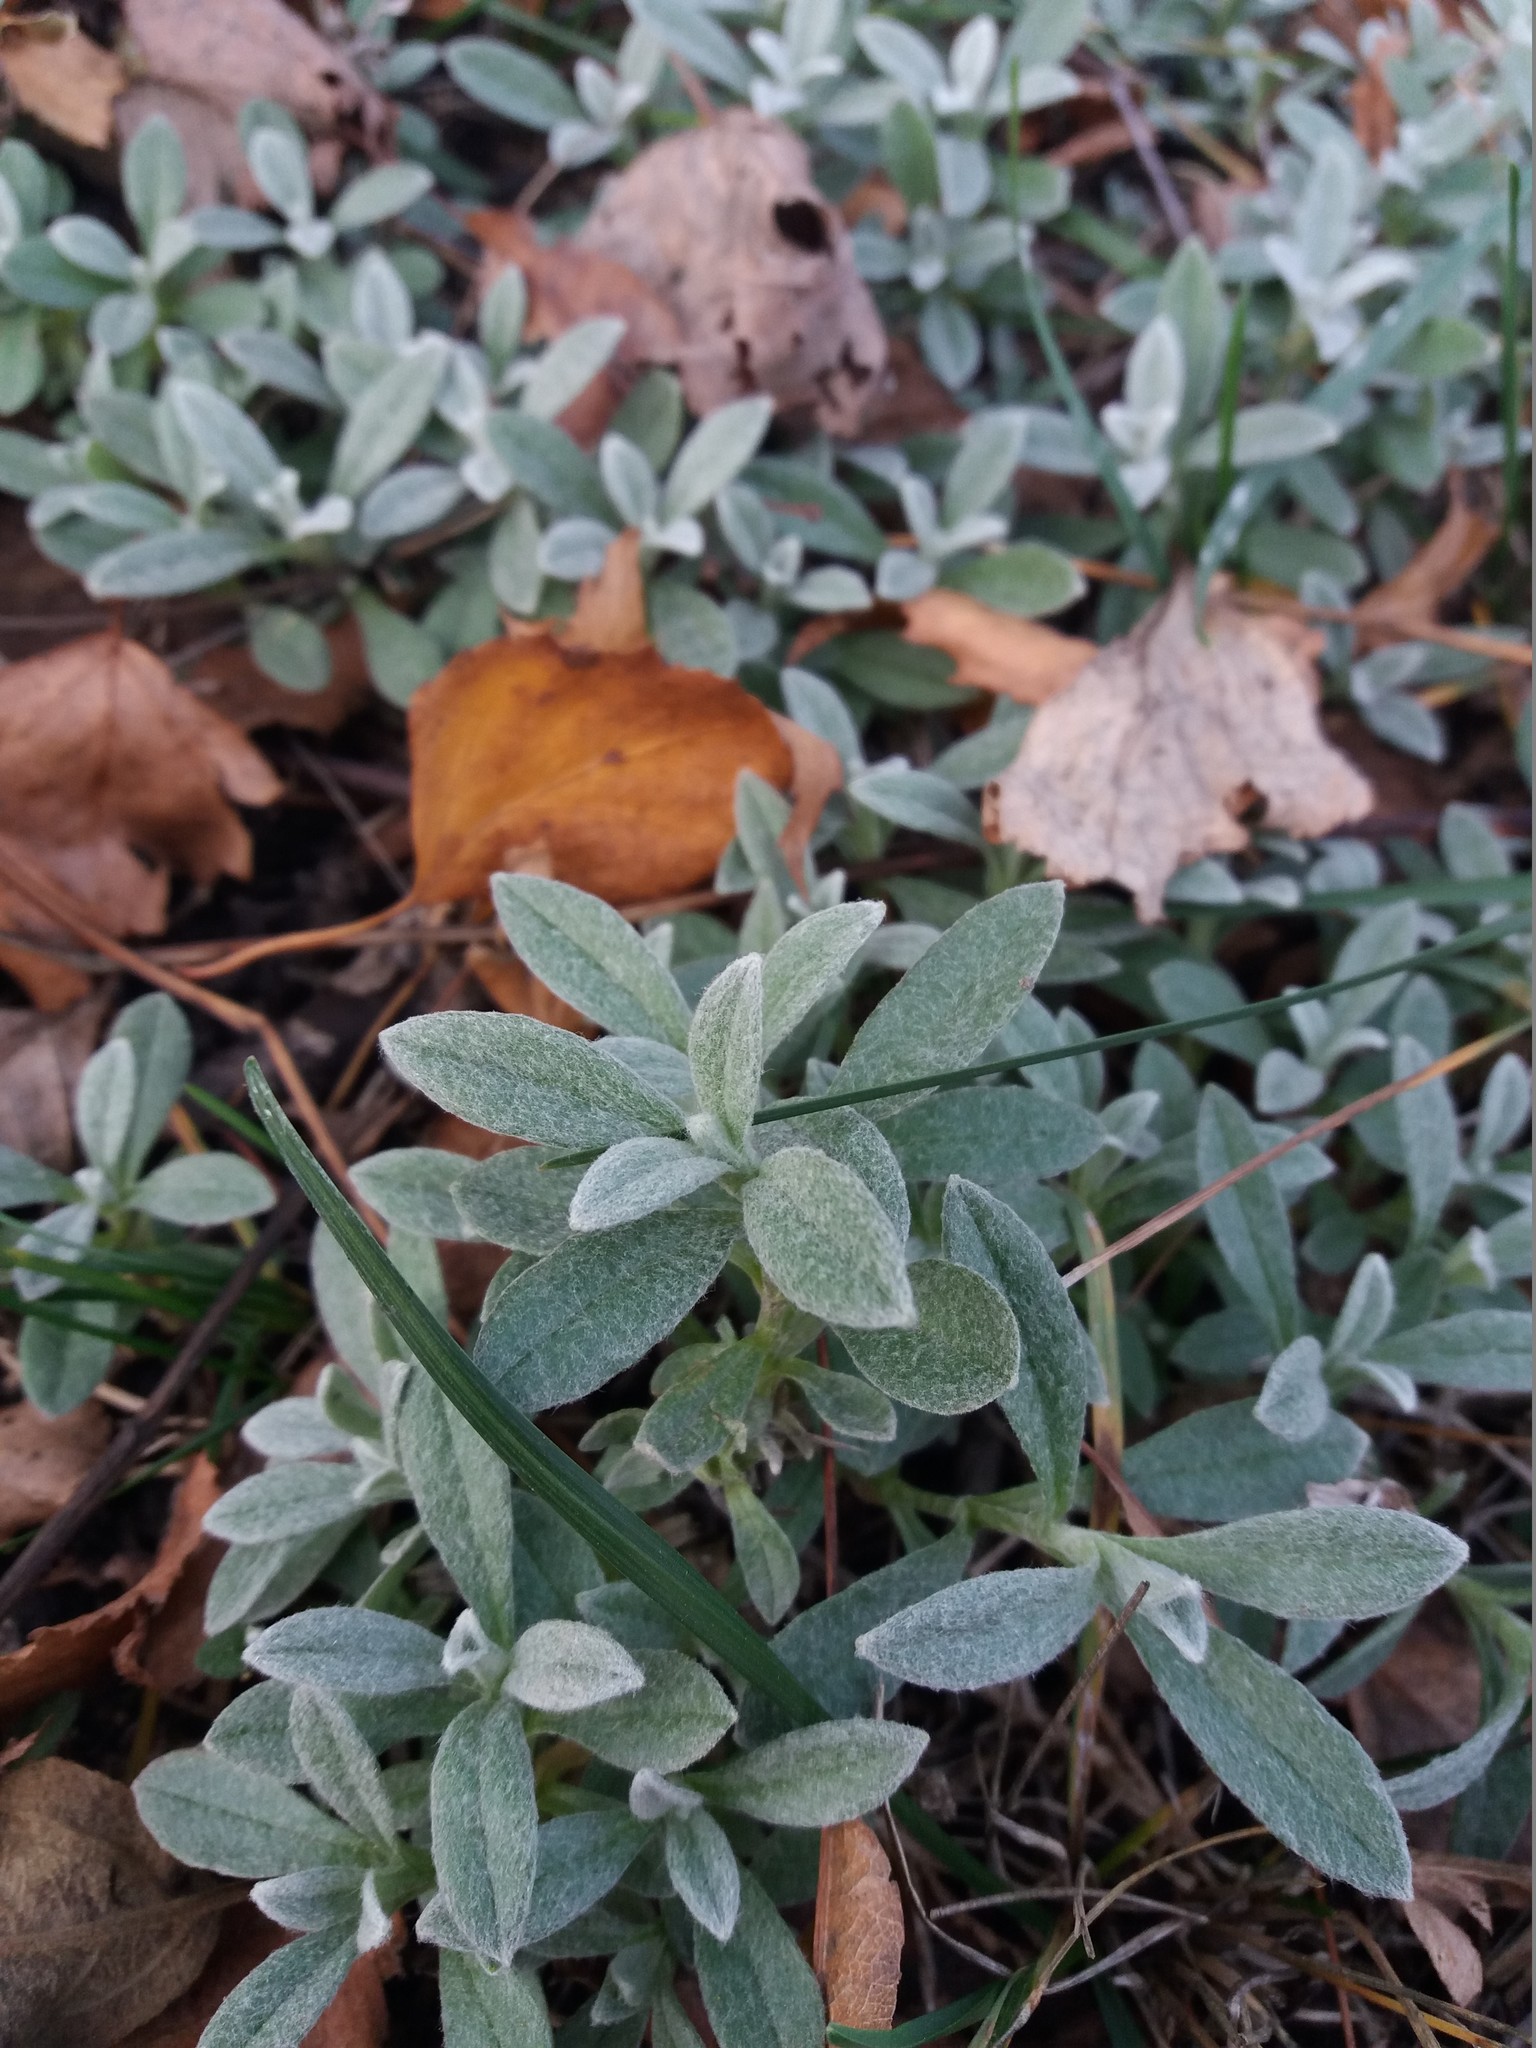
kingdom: Plantae
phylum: Tracheophyta
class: Magnoliopsida
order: Caryophyllales
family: Caryophyllaceae
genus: Cerastium
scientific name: Cerastium tomentosum
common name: Snow-in-summer
